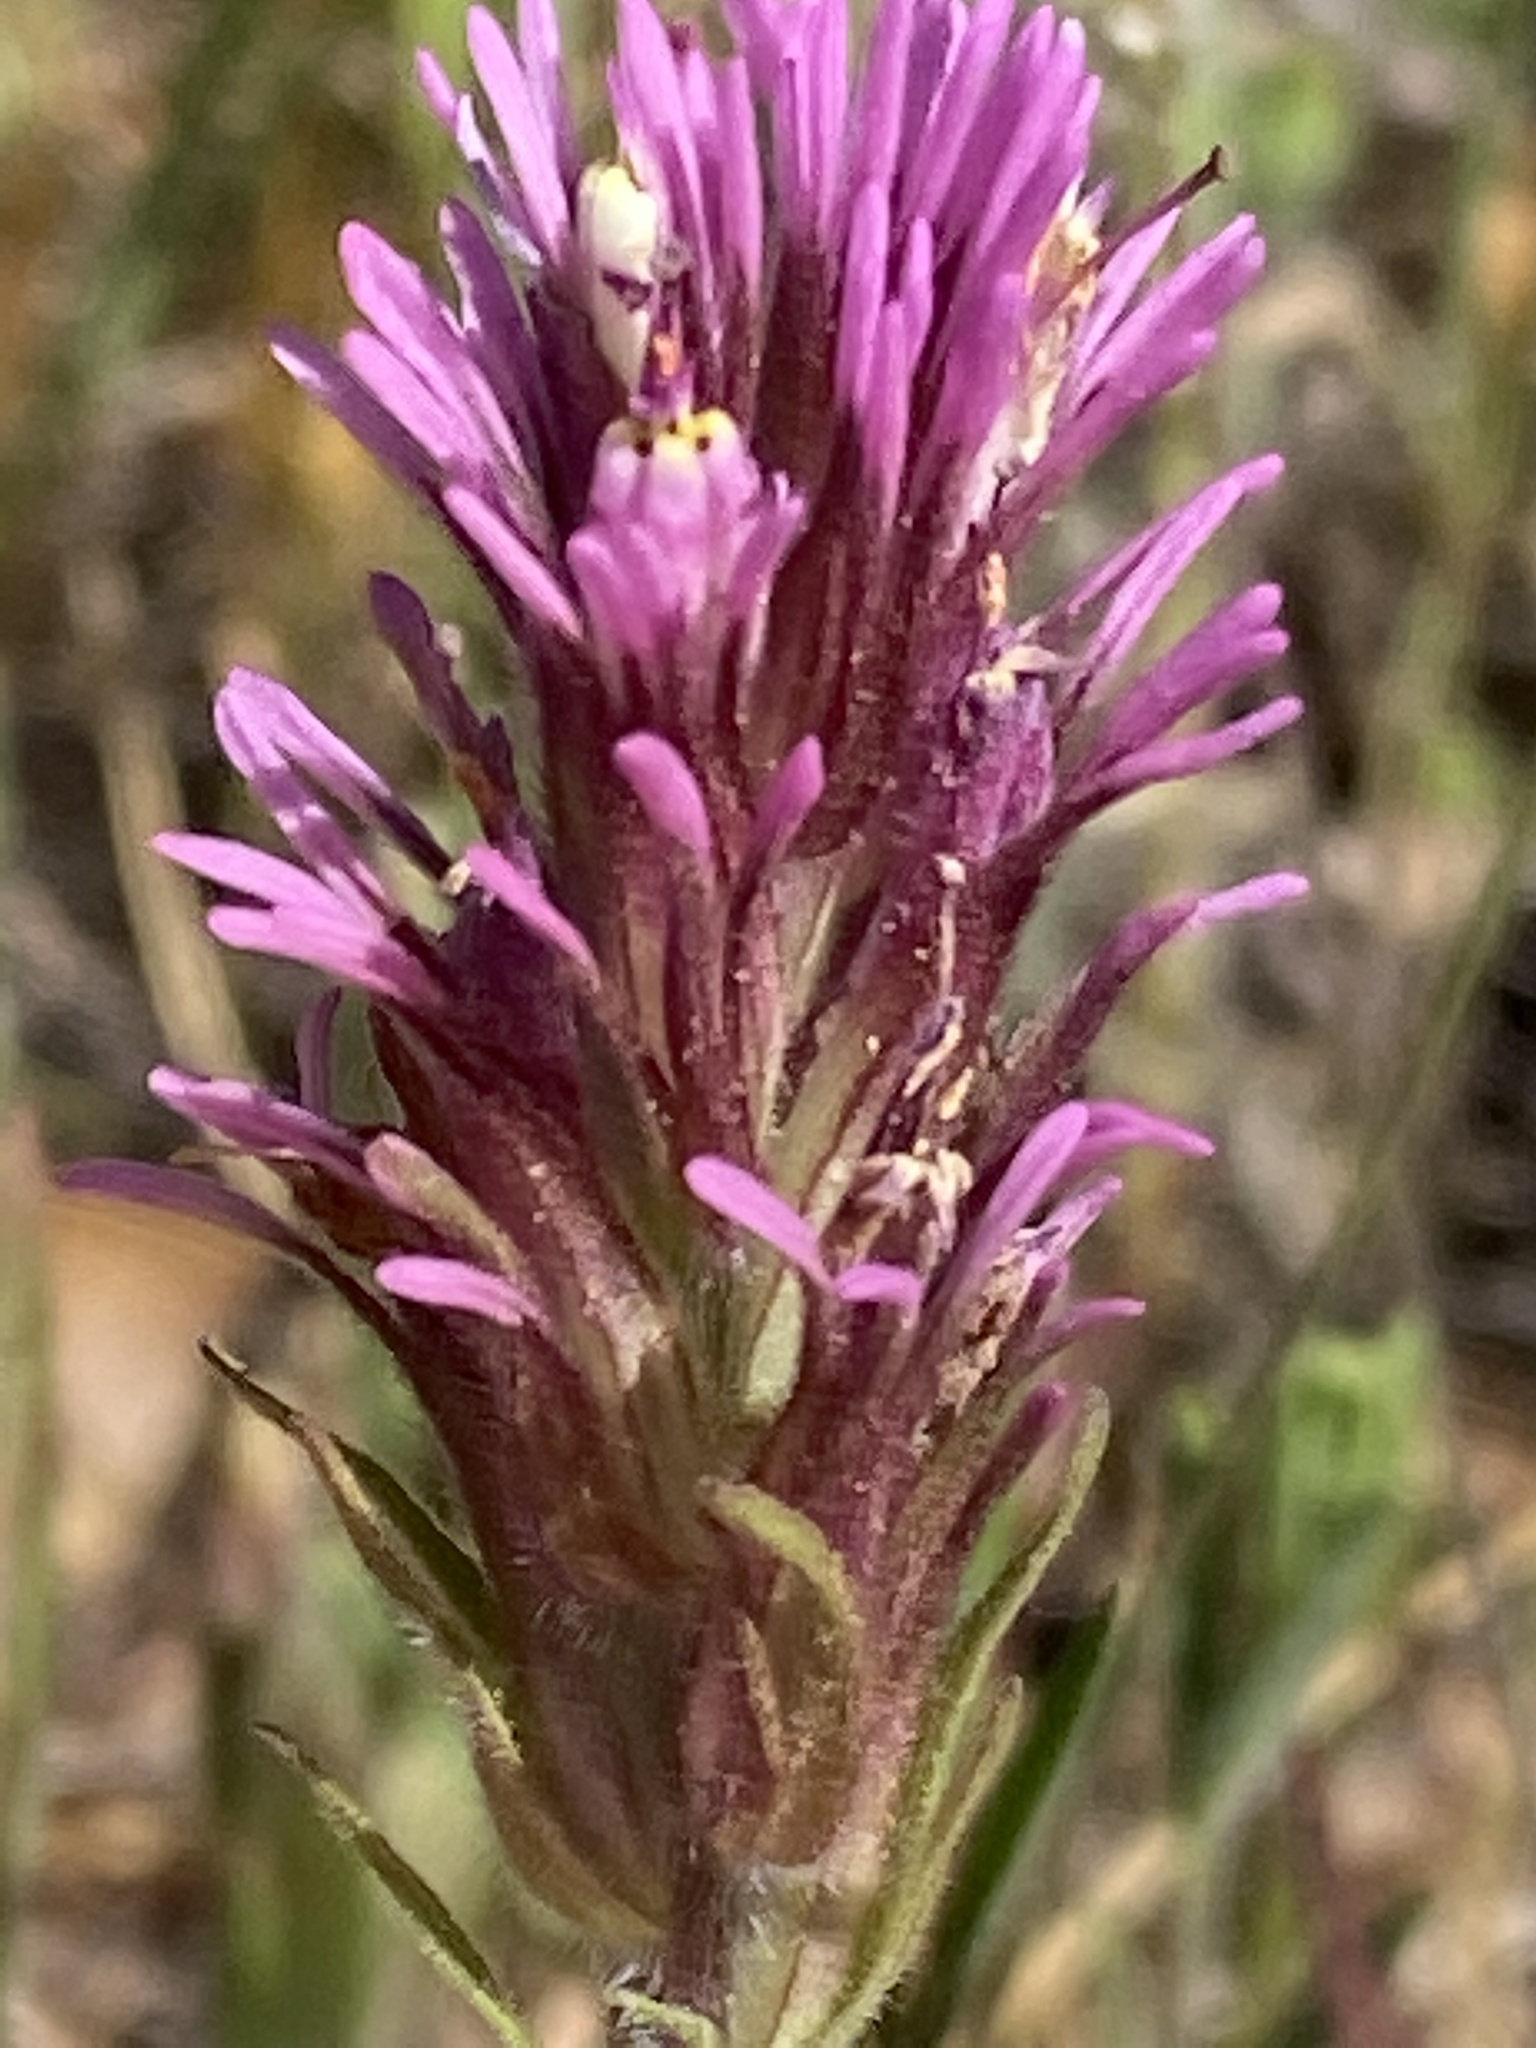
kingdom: Plantae
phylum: Tracheophyta
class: Magnoliopsida
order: Lamiales
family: Orobanchaceae
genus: Castilleja
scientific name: Castilleja densiflora
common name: Dense-flower indian paintbrush
